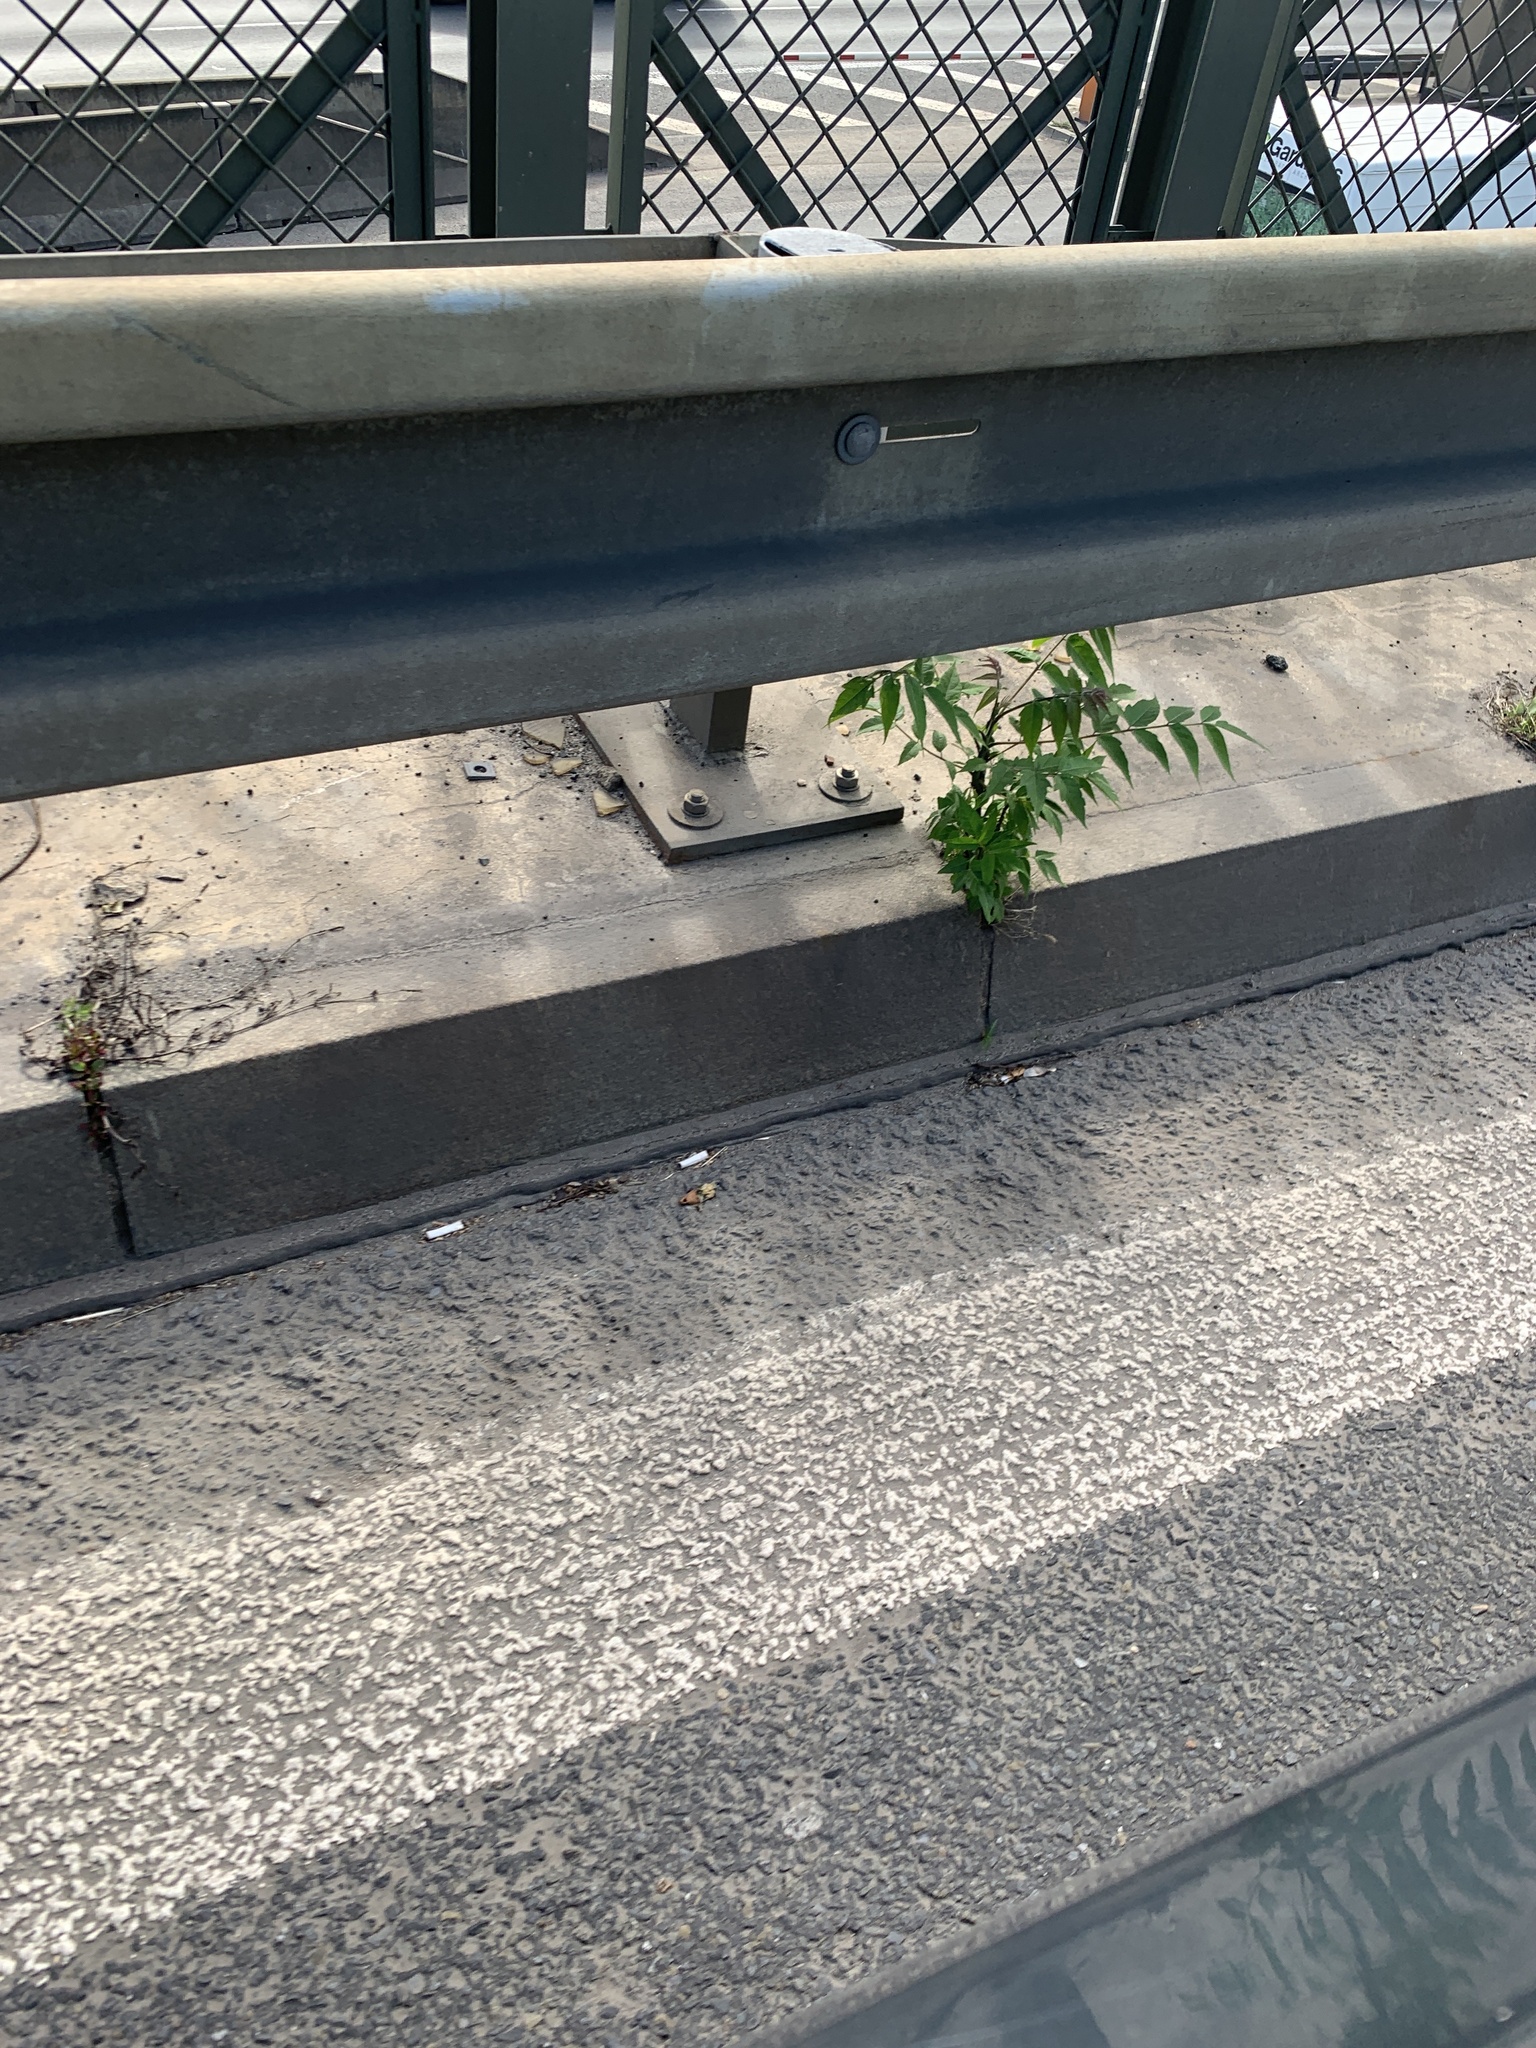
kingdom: Plantae
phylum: Tracheophyta
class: Magnoliopsida
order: Sapindales
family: Simaroubaceae
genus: Ailanthus
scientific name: Ailanthus altissima
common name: Tree-of-heaven
